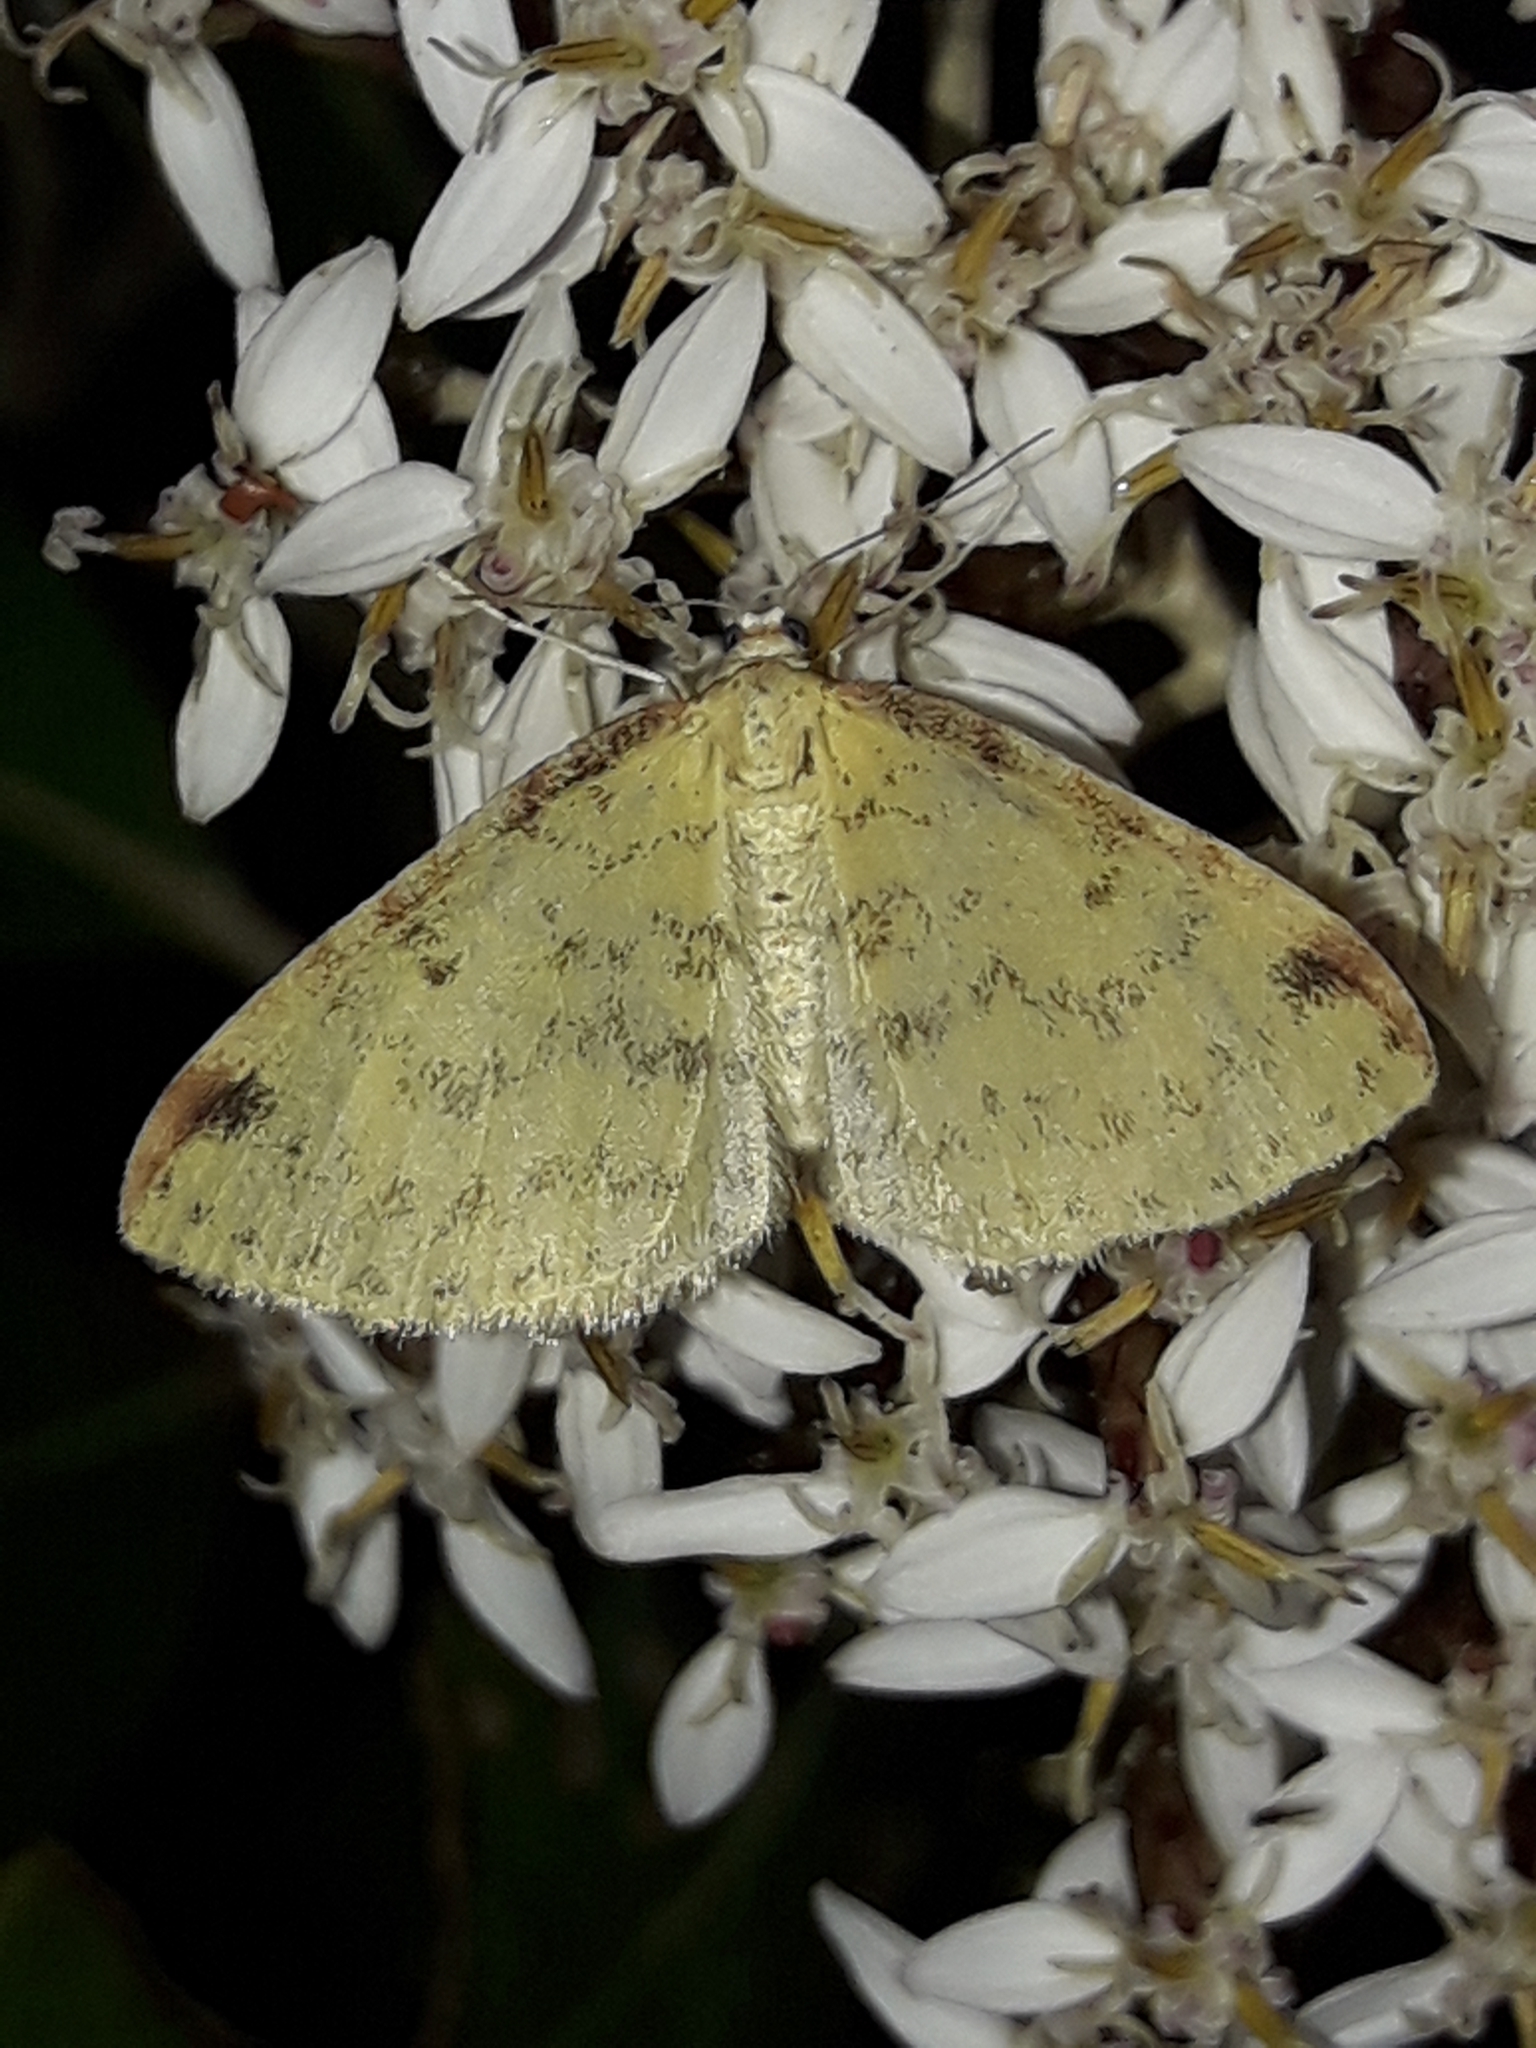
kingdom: Animalia
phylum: Arthropoda
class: Insecta
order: Lepidoptera
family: Geometridae
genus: Epiphryne
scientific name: Epiphryne undosata
